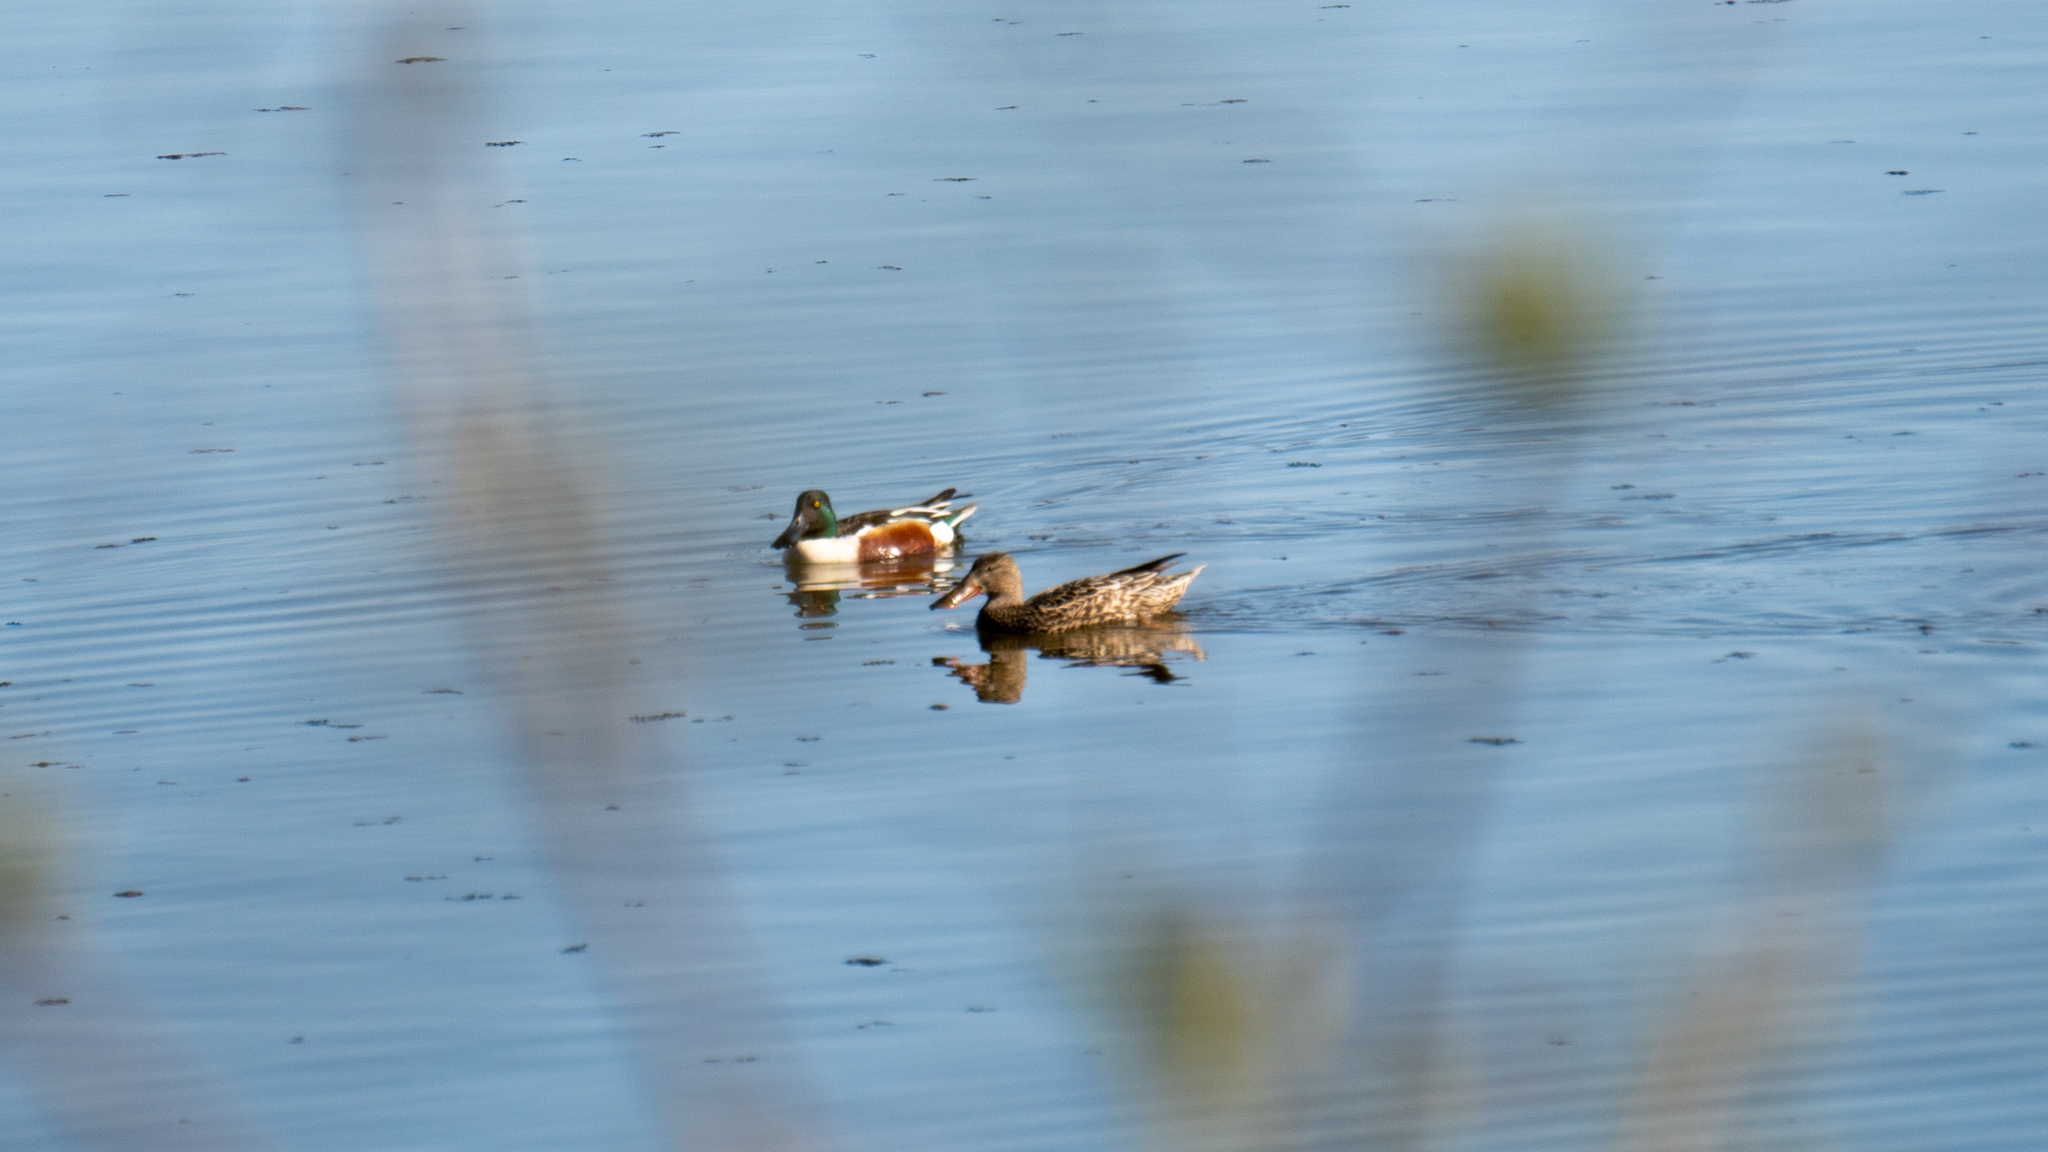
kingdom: Animalia
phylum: Chordata
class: Aves
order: Anseriformes
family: Anatidae
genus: Spatula
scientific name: Spatula clypeata
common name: Northern shoveler
